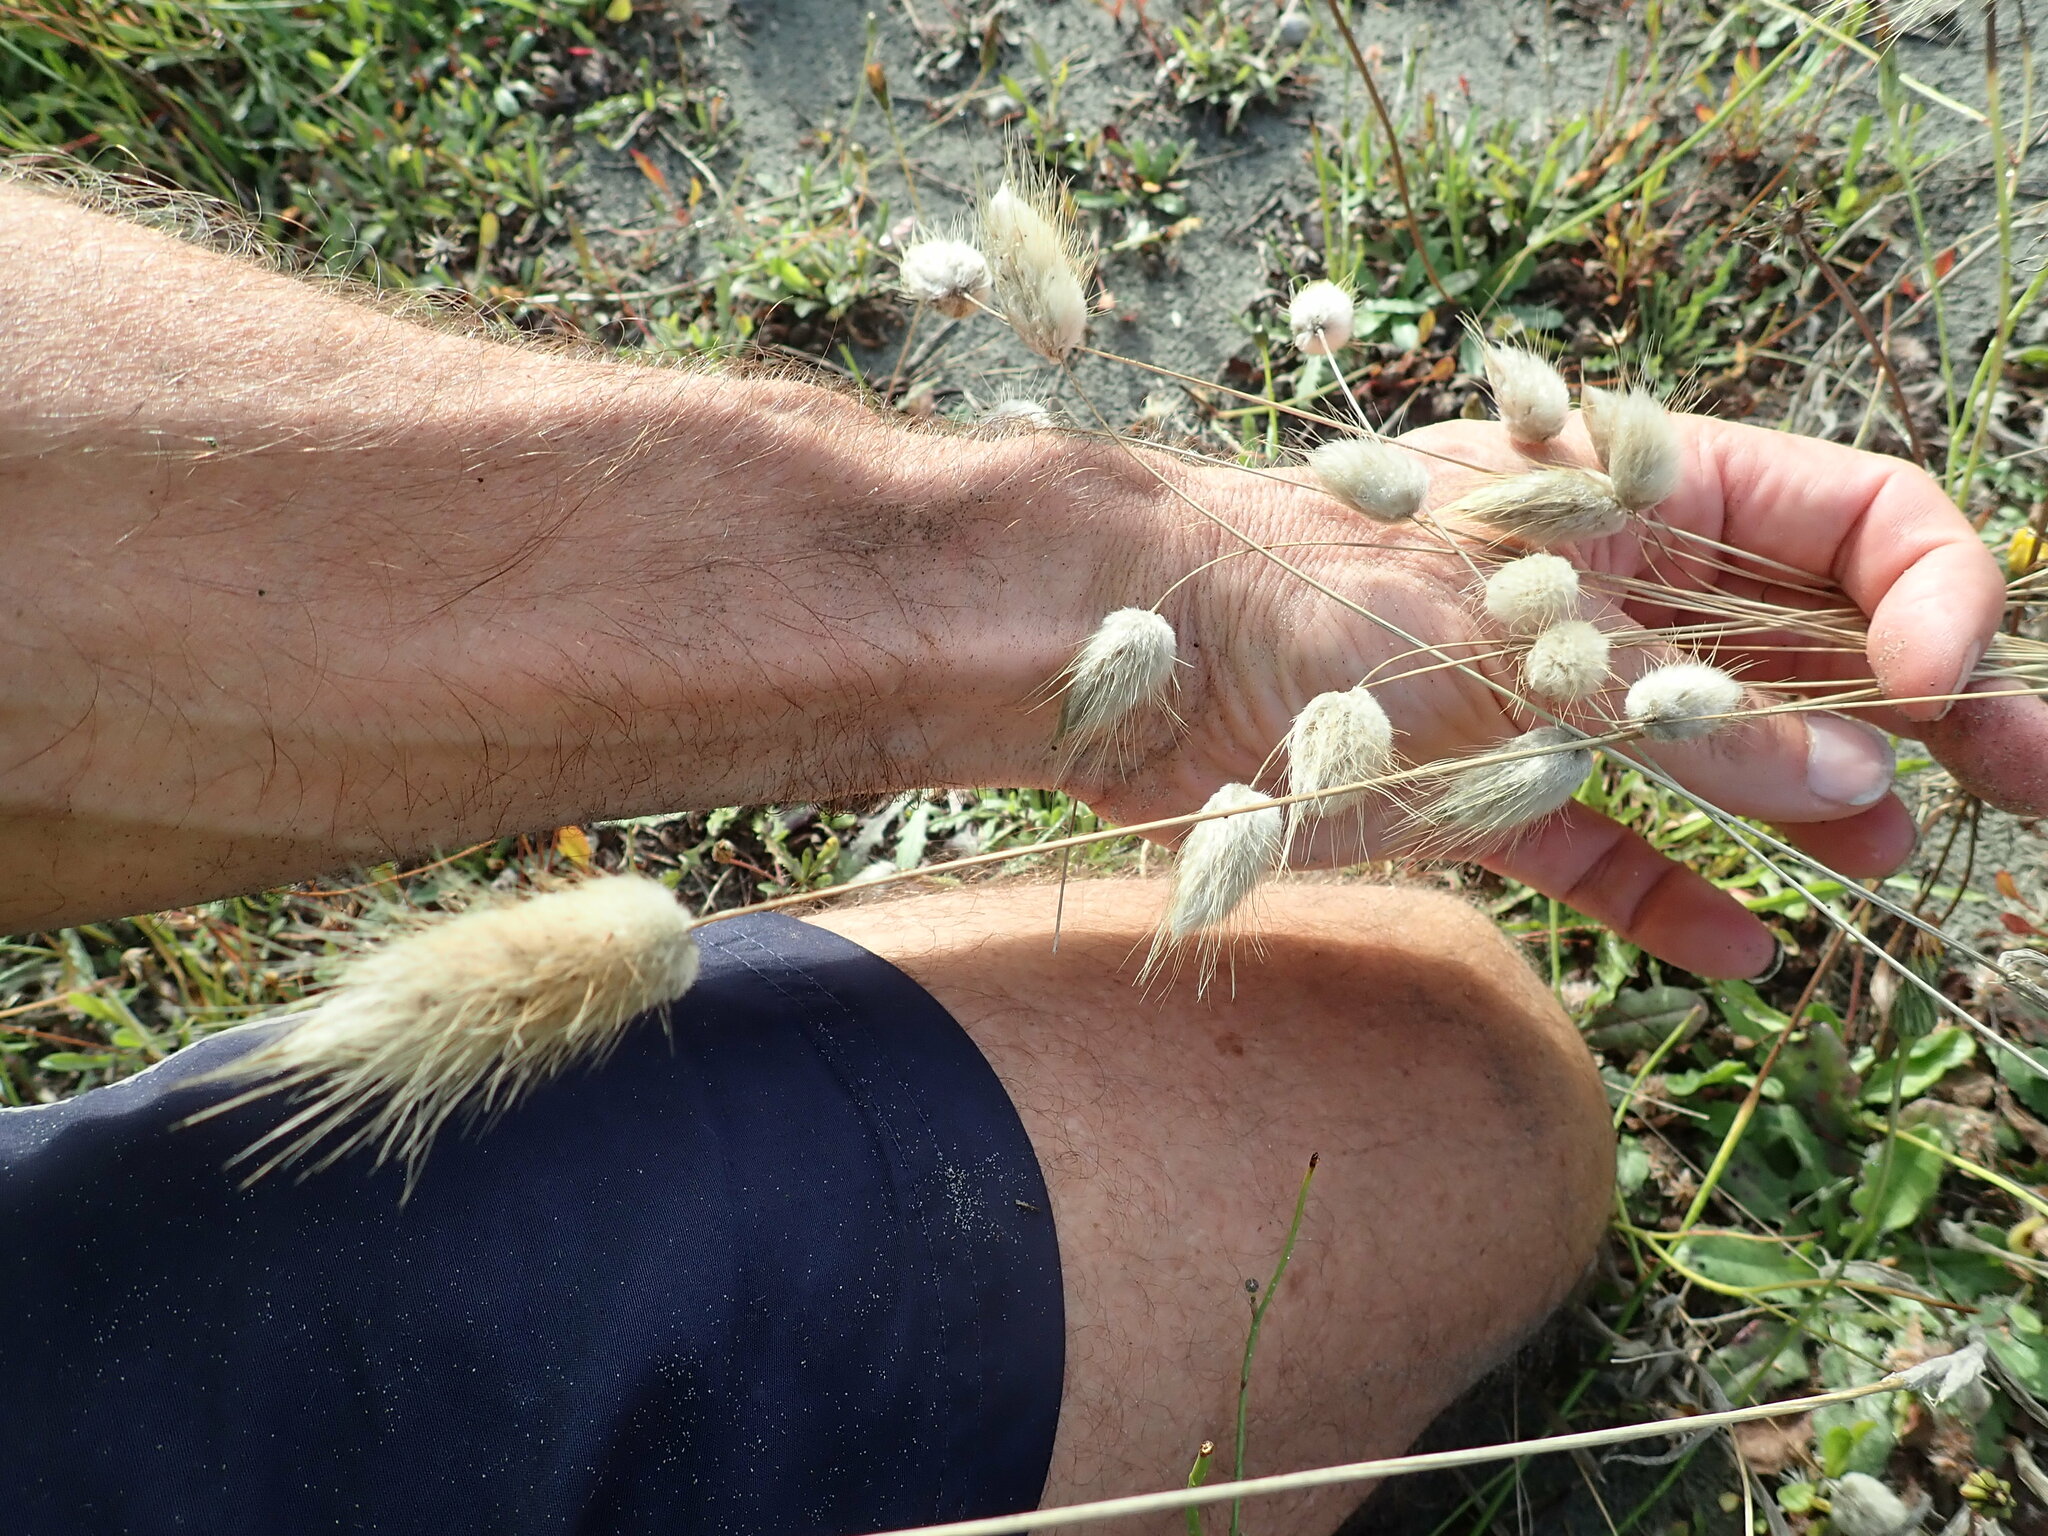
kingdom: Plantae
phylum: Tracheophyta
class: Liliopsida
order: Poales
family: Poaceae
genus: Lagurus
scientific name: Lagurus ovatus
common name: Hare's-tail
